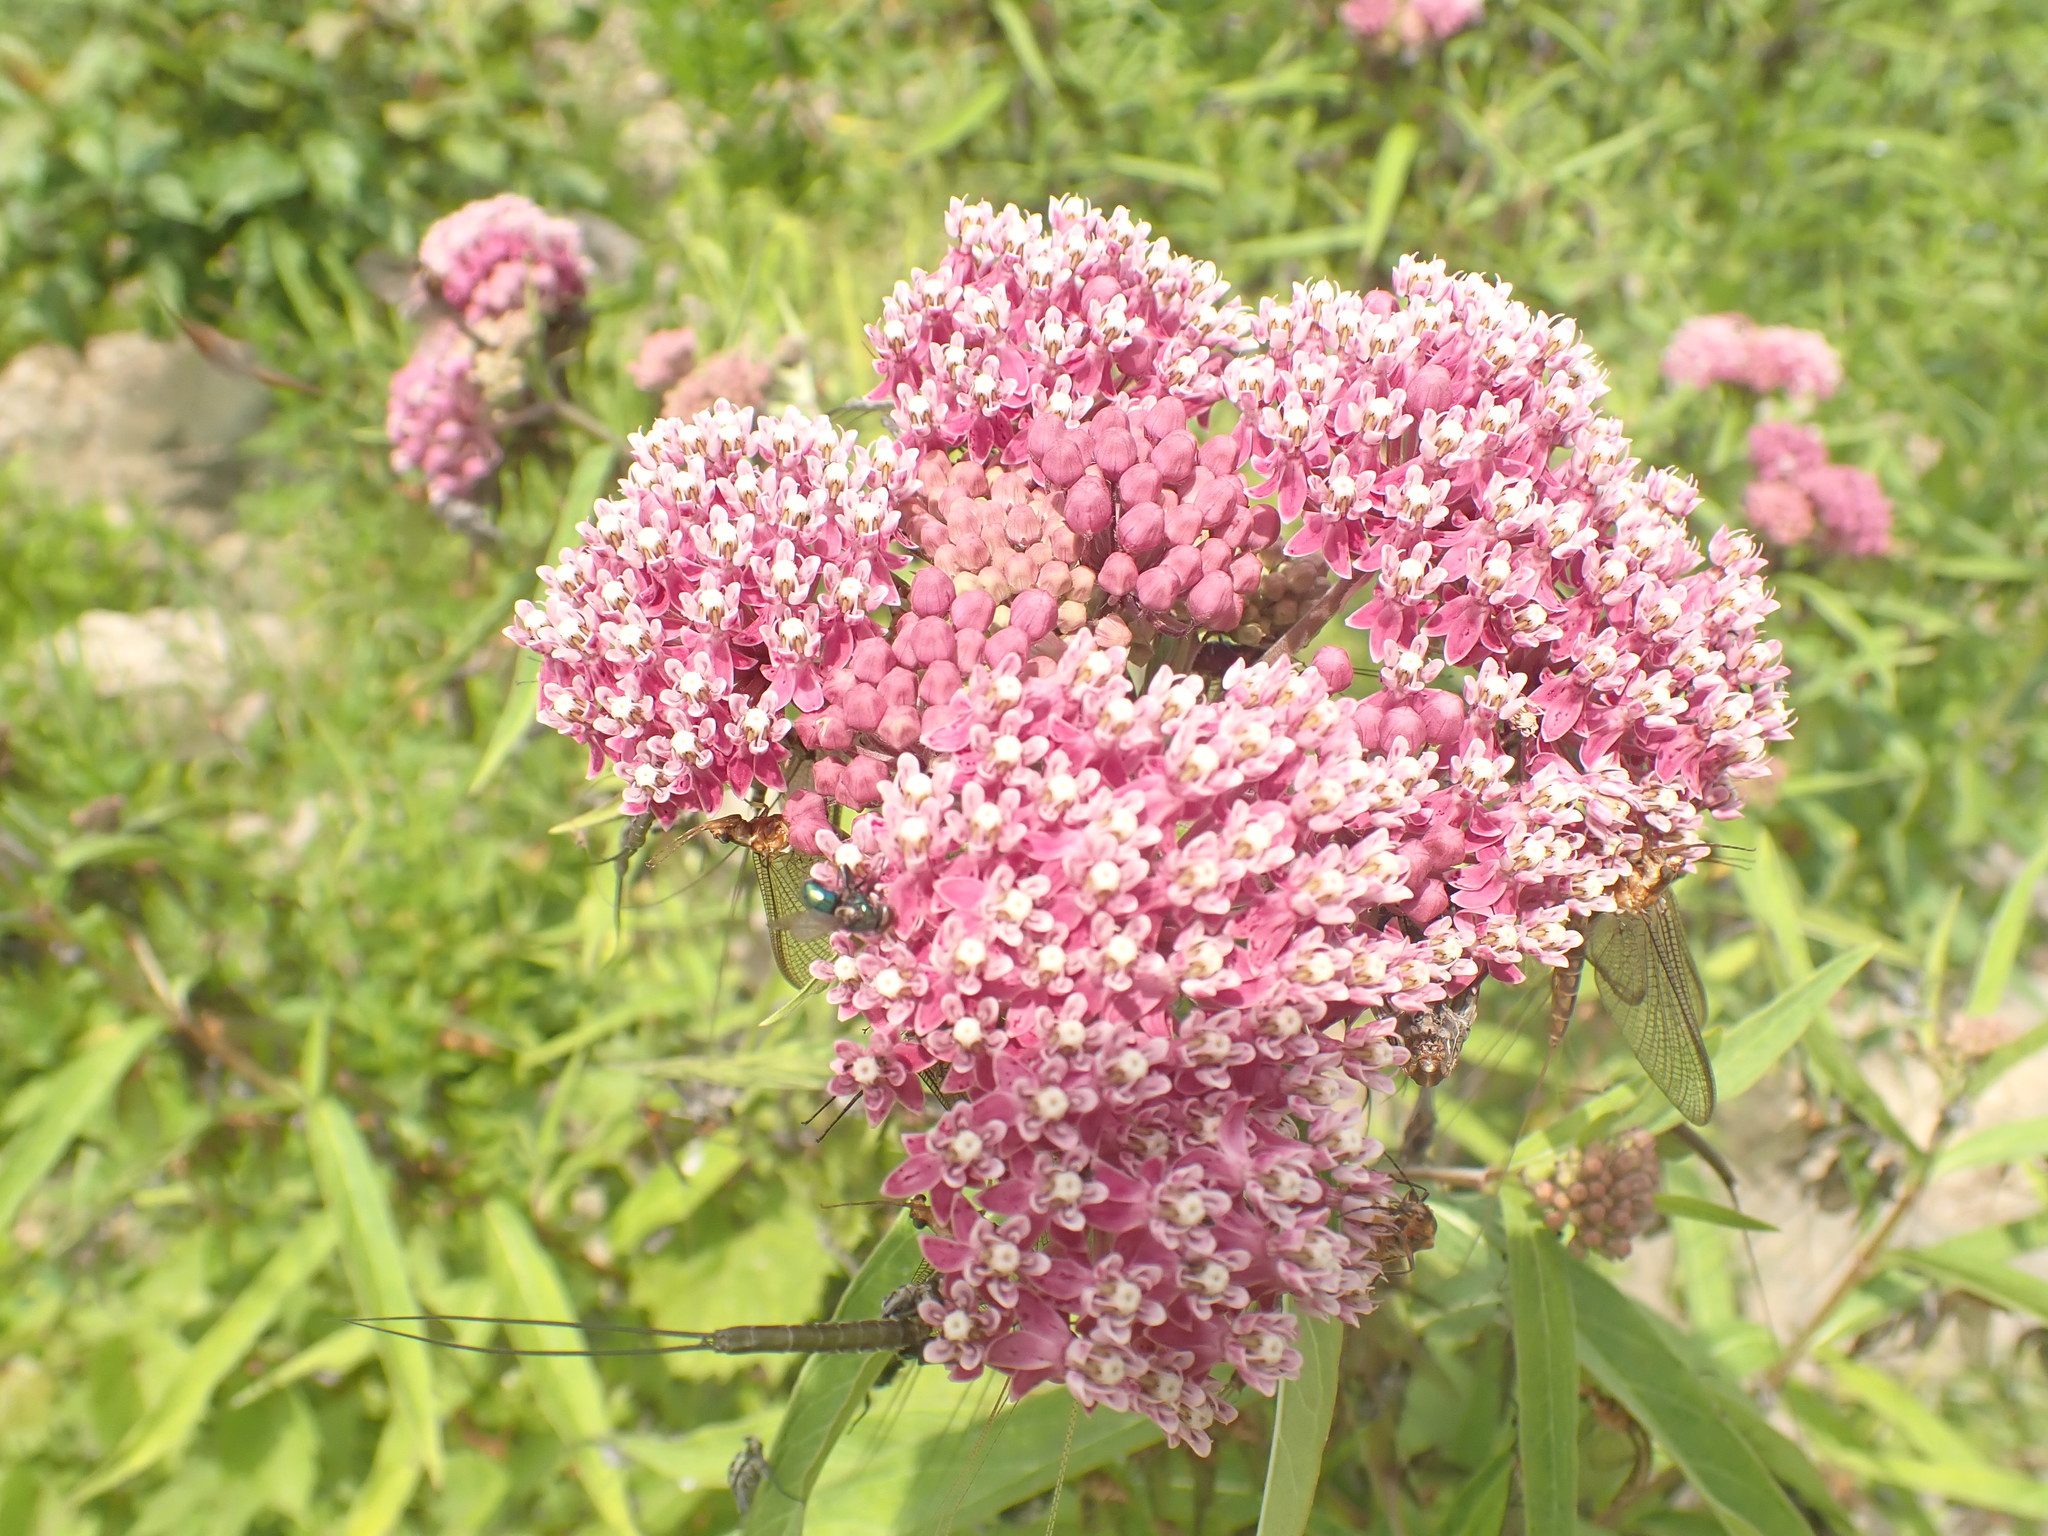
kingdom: Plantae
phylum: Tracheophyta
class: Magnoliopsida
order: Gentianales
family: Apocynaceae
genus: Asclepias
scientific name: Asclepias incarnata
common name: Swamp milkweed
